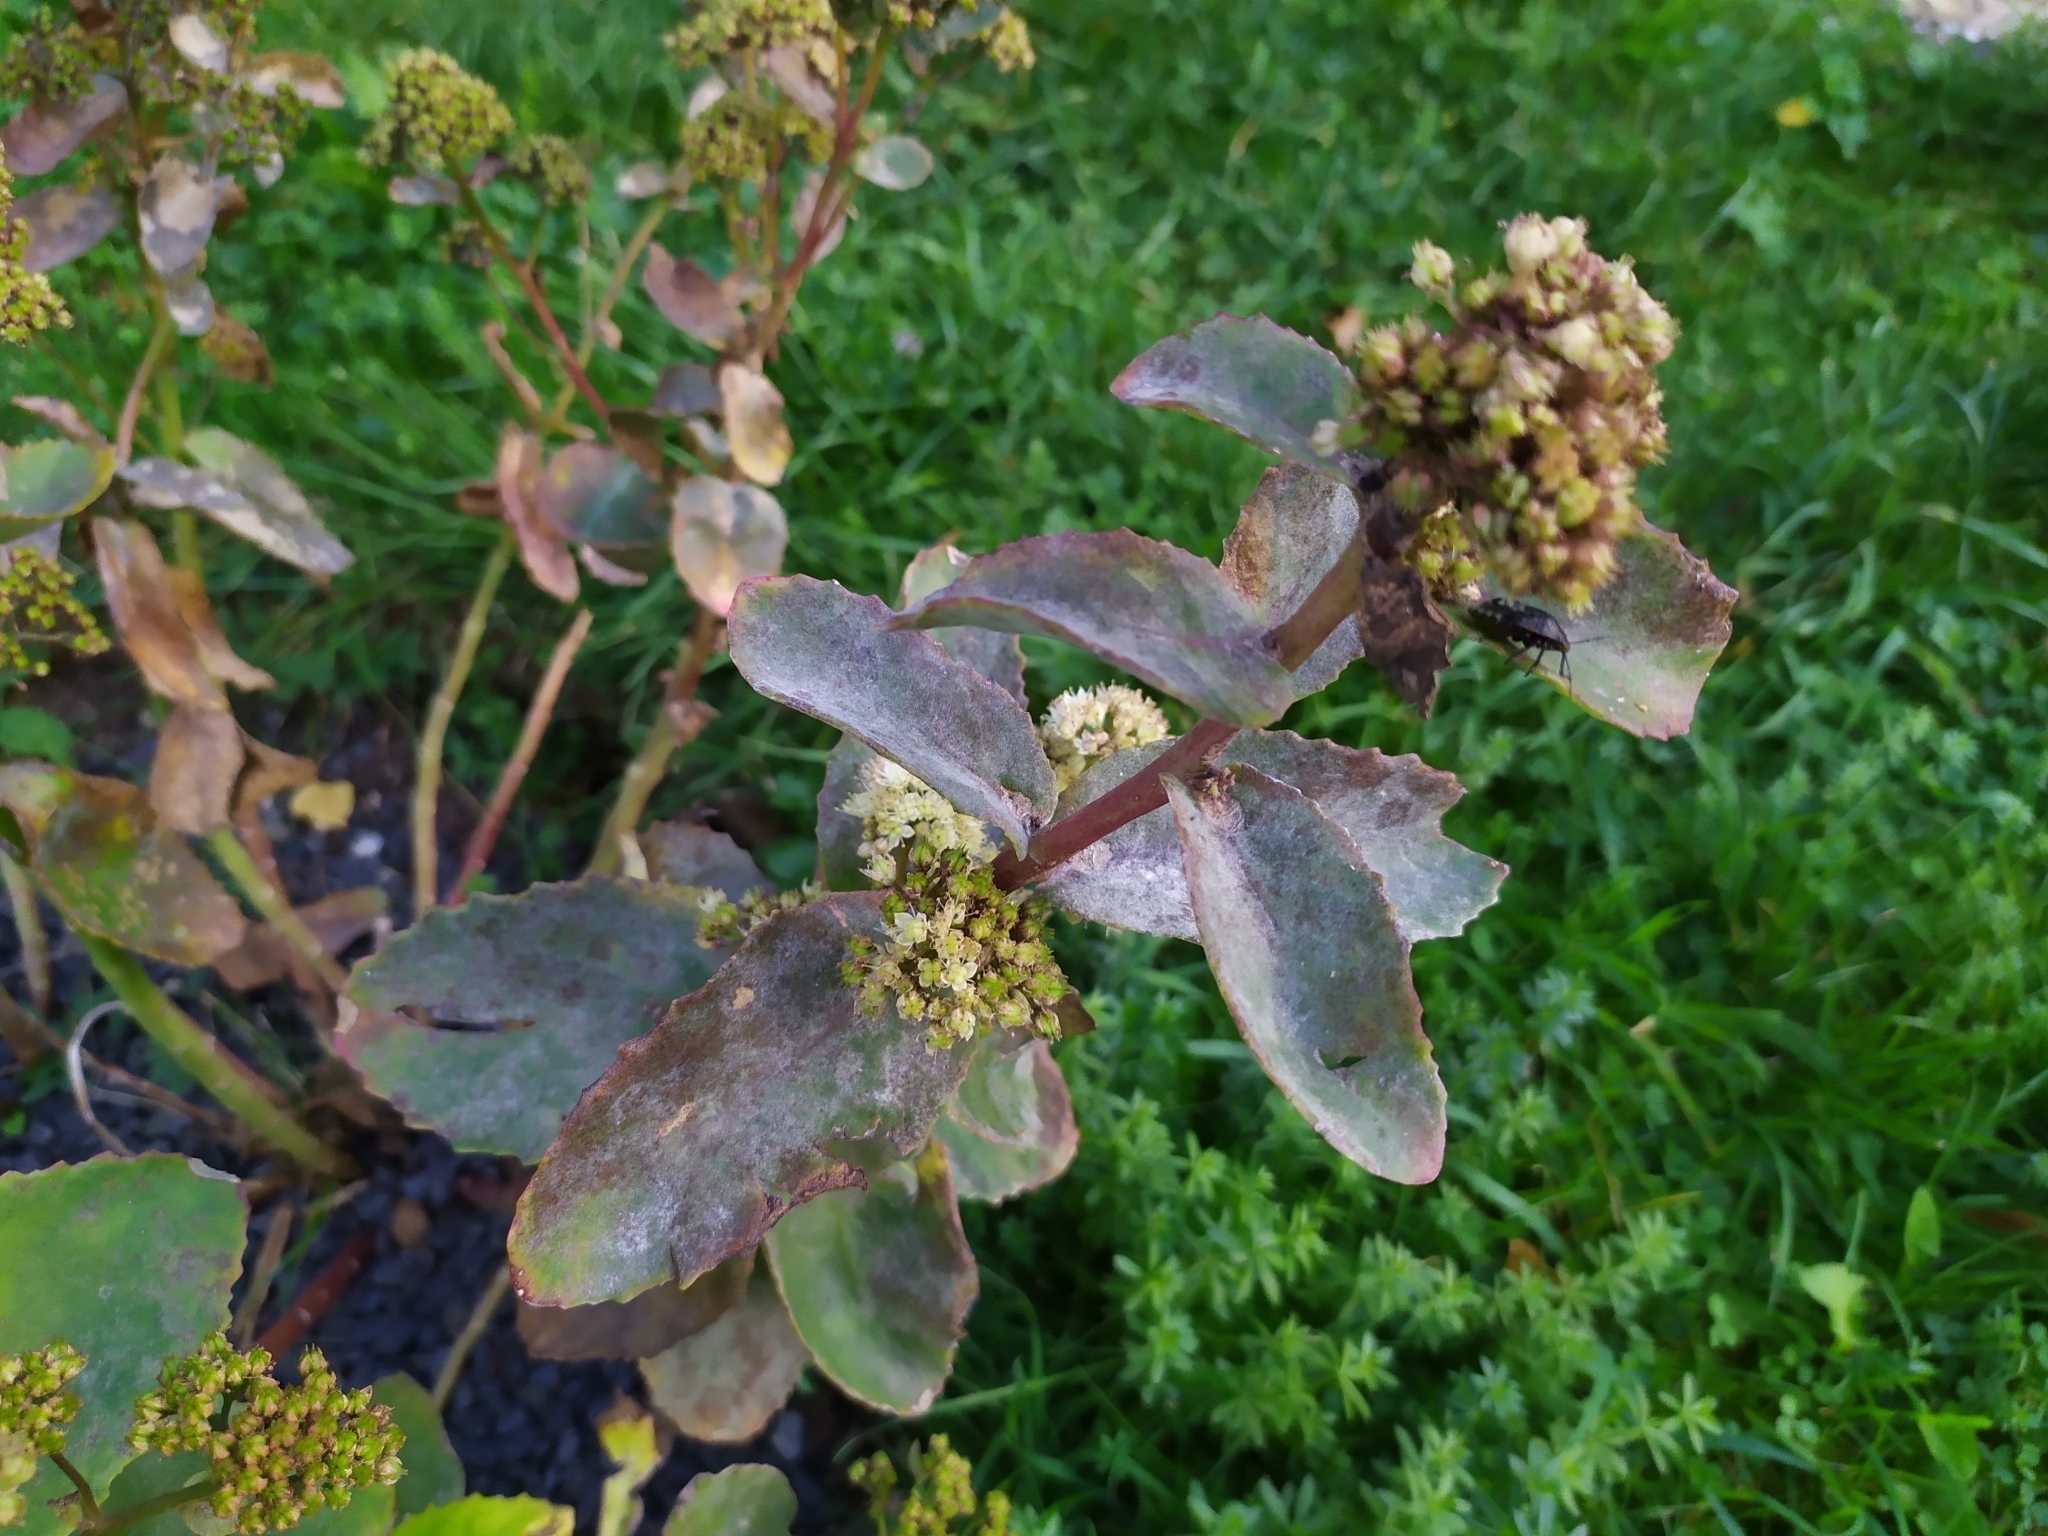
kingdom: Fungi
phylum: Ascomycota
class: Leotiomycetes
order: Helotiales
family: Erysiphaceae
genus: Erysiphe
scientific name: Erysiphe sedi
